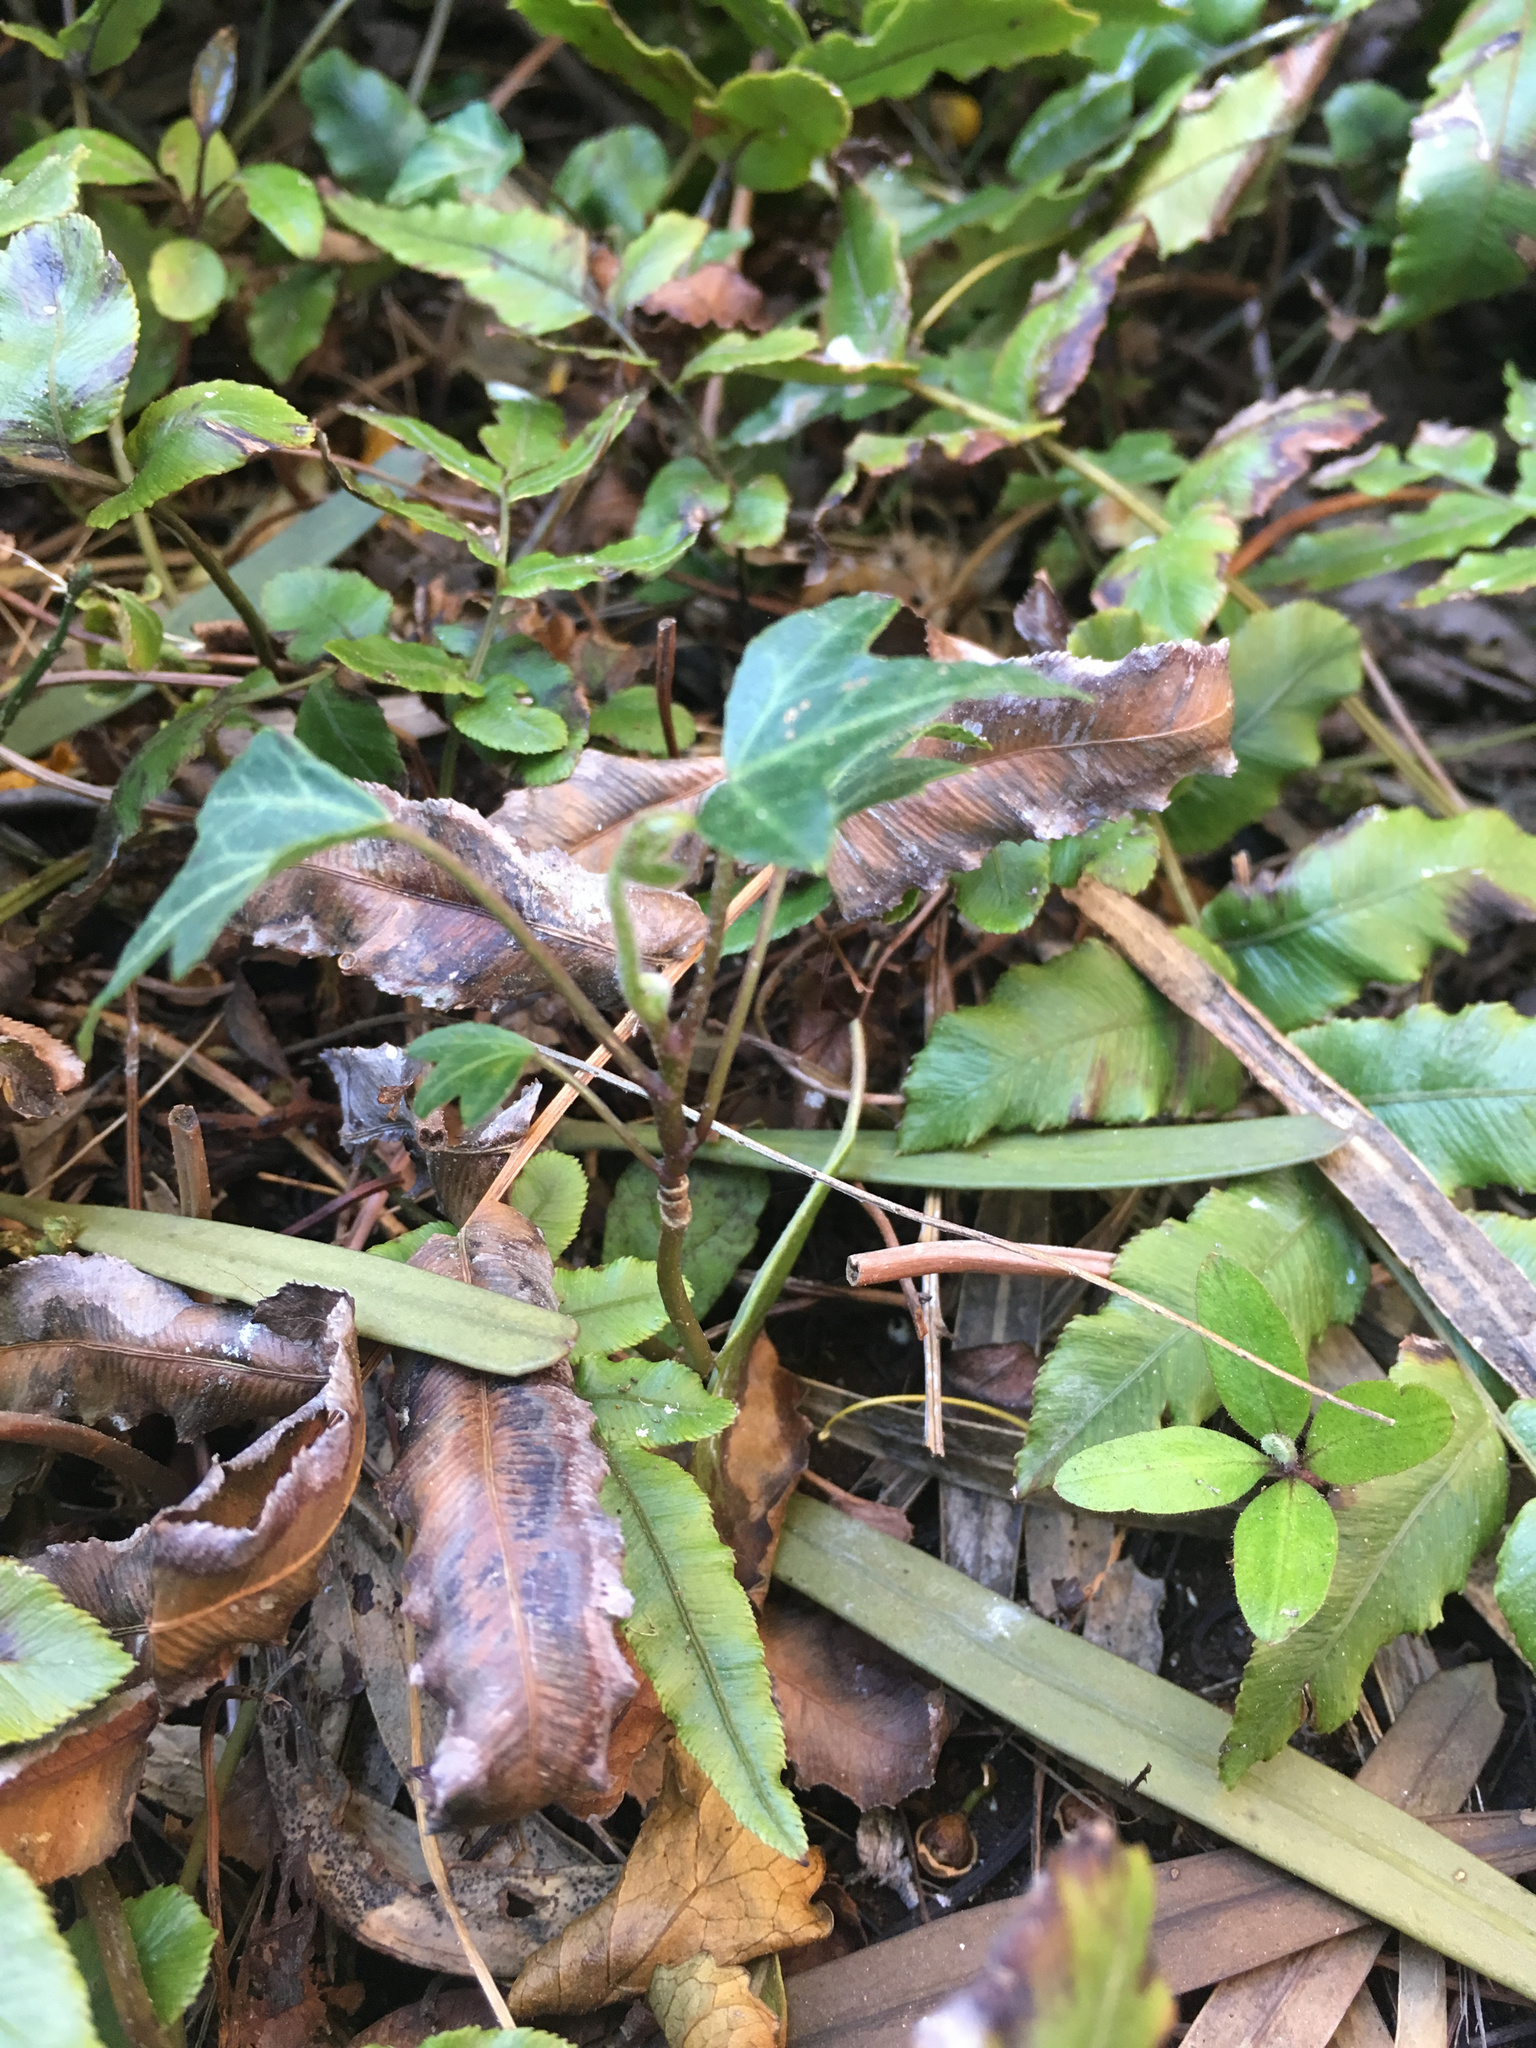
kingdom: Plantae
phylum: Tracheophyta
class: Magnoliopsida
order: Apiales
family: Araliaceae
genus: Hedera
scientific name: Hedera helix
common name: Ivy
